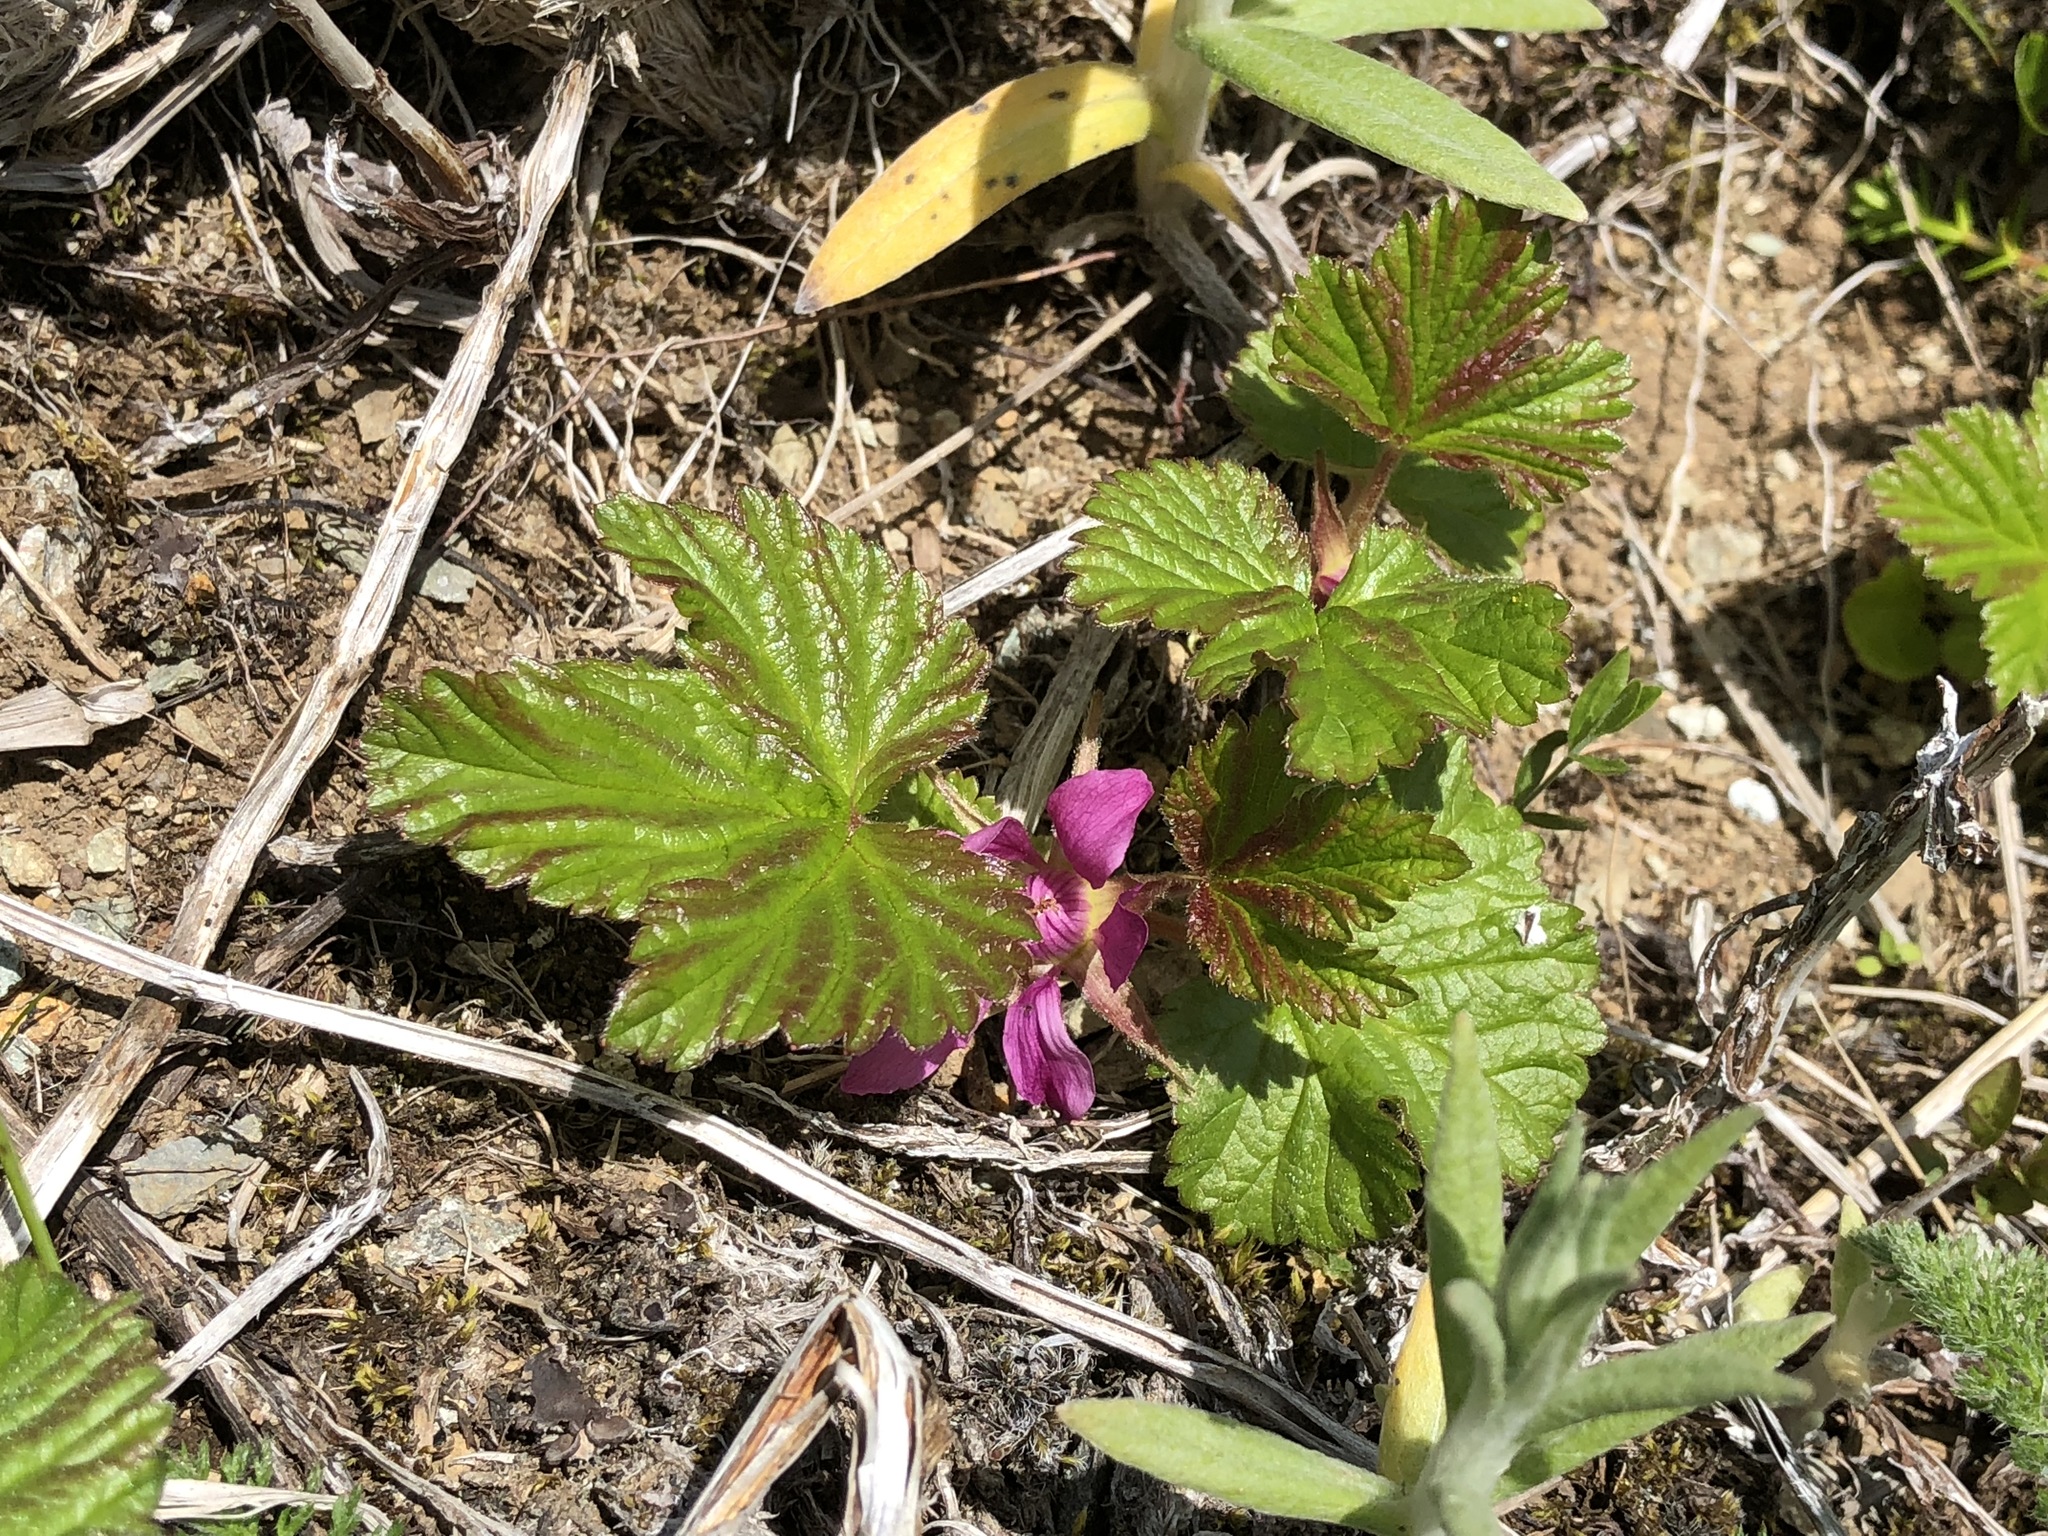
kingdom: Plantae
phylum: Tracheophyta
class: Magnoliopsida
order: Rosales
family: Rosaceae
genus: Rubus
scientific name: Rubus arcticus
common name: Arctic bramble
